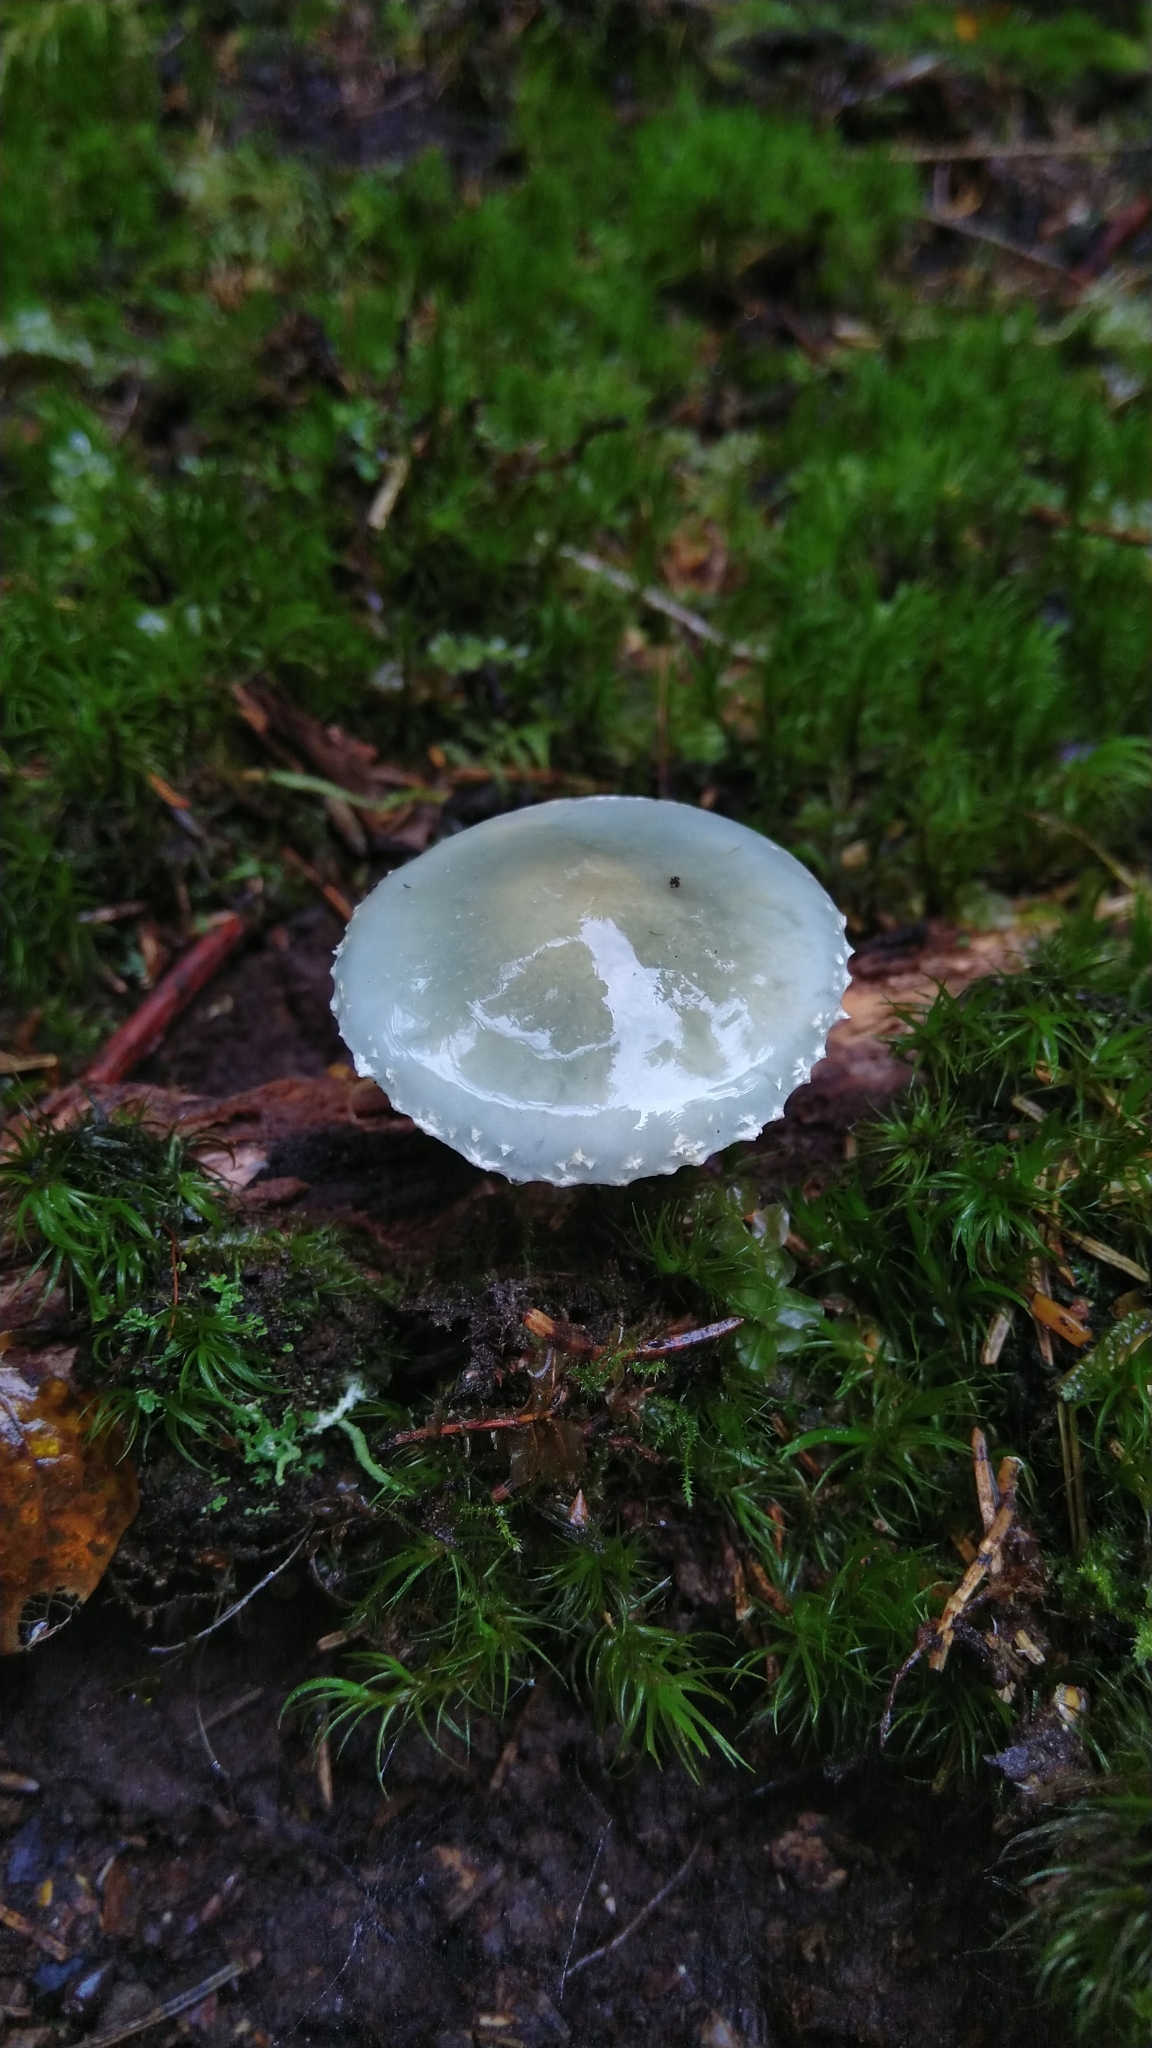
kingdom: Fungi
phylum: Basidiomycota
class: Agaricomycetes
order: Agaricales
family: Strophariaceae
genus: Stropharia
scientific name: Stropharia aeruginosa
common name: Verdigris roundhead
